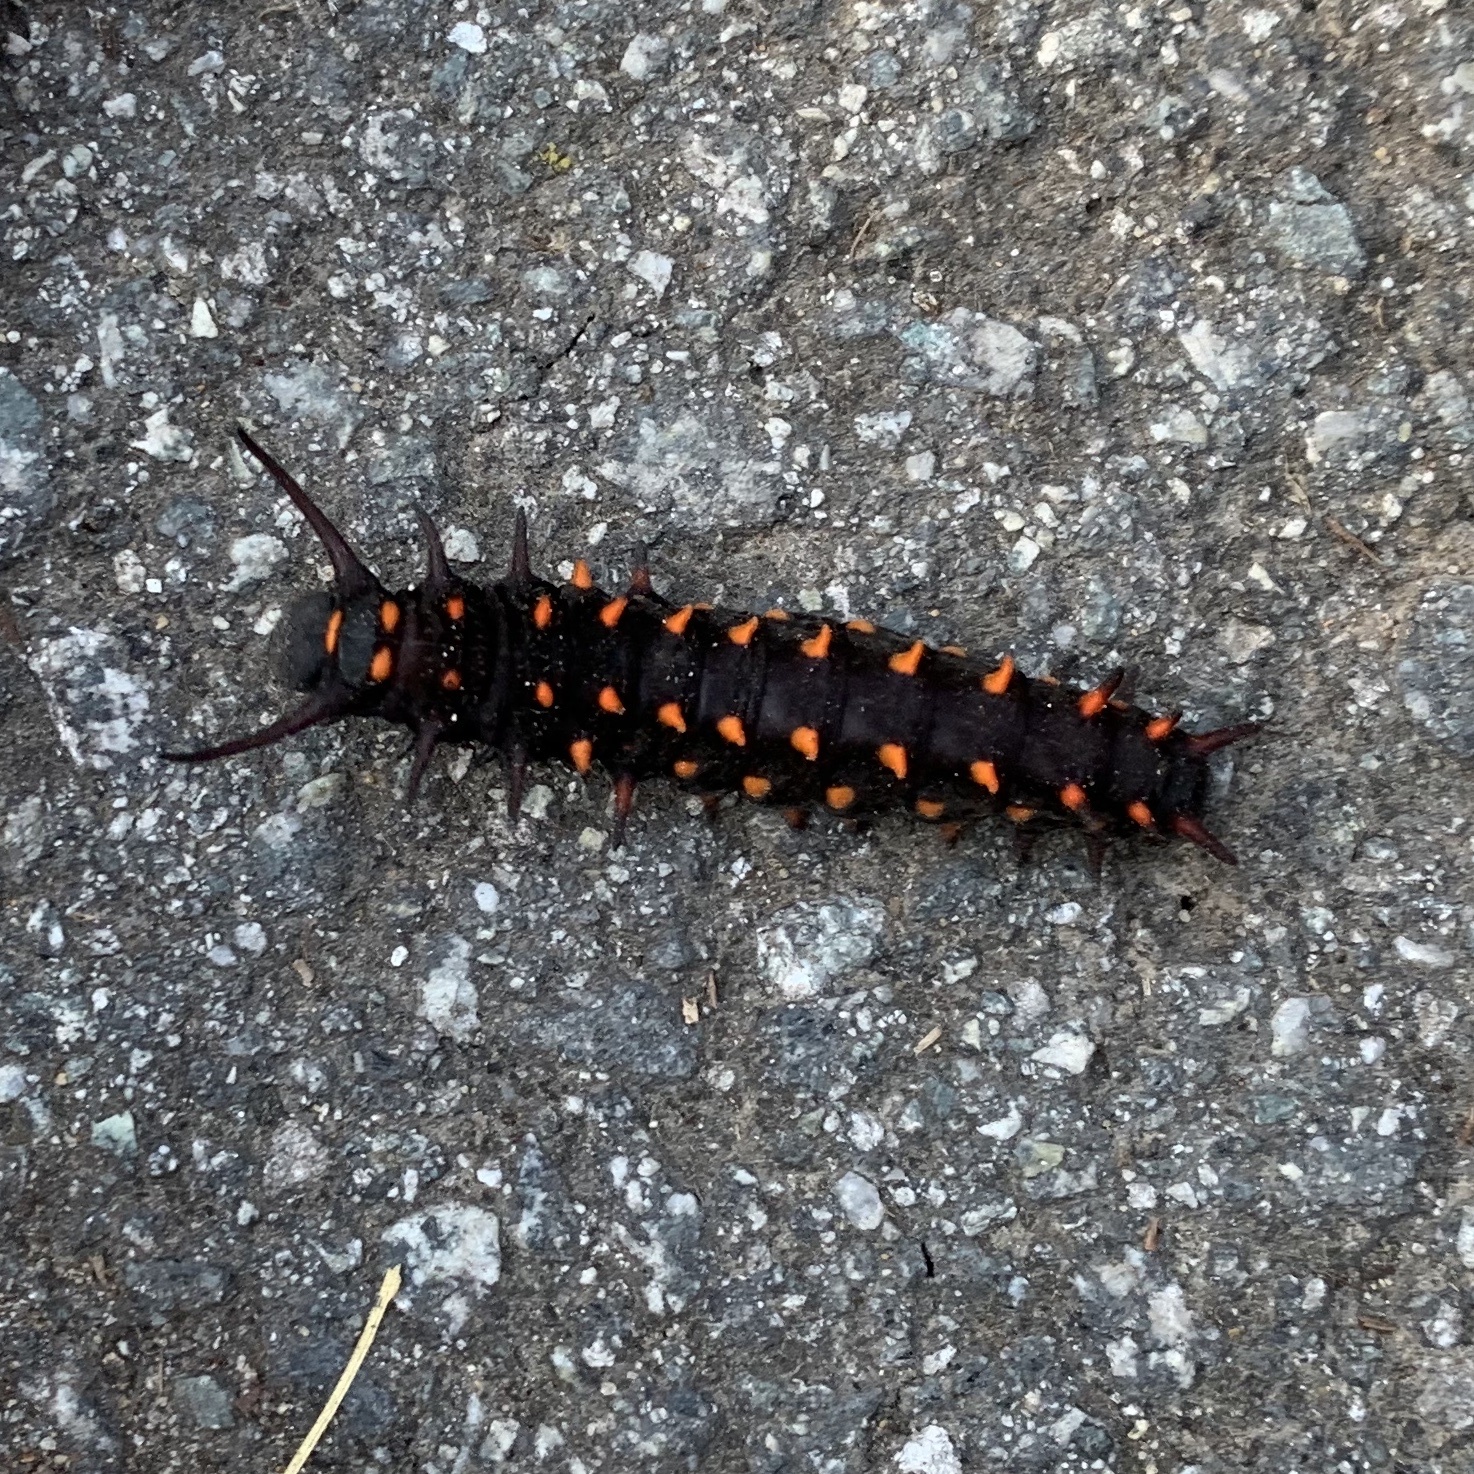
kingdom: Animalia
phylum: Arthropoda
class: Insecta
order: Lepidoptera
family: Papilionidae
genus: Battus
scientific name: Battus philenor
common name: Pipevine swallowtail
